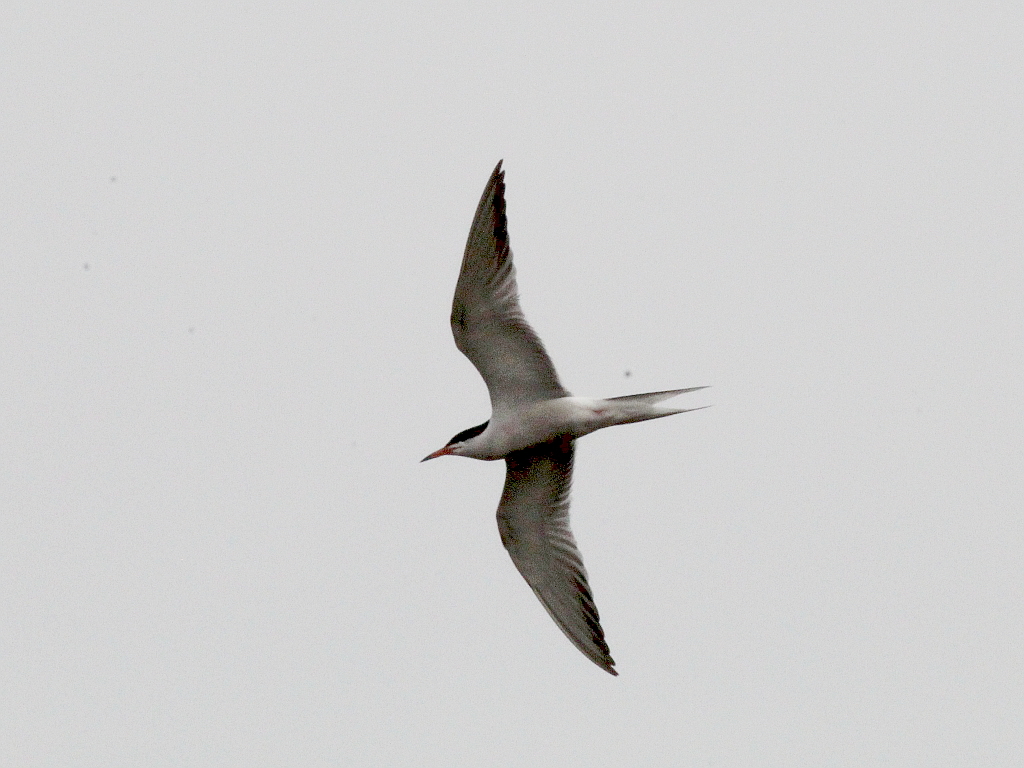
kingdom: Animalia
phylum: Chordata
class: Aves
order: Charadriiformes
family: Laridae
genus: Sterna
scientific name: Sterna hirundo
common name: Common tern
